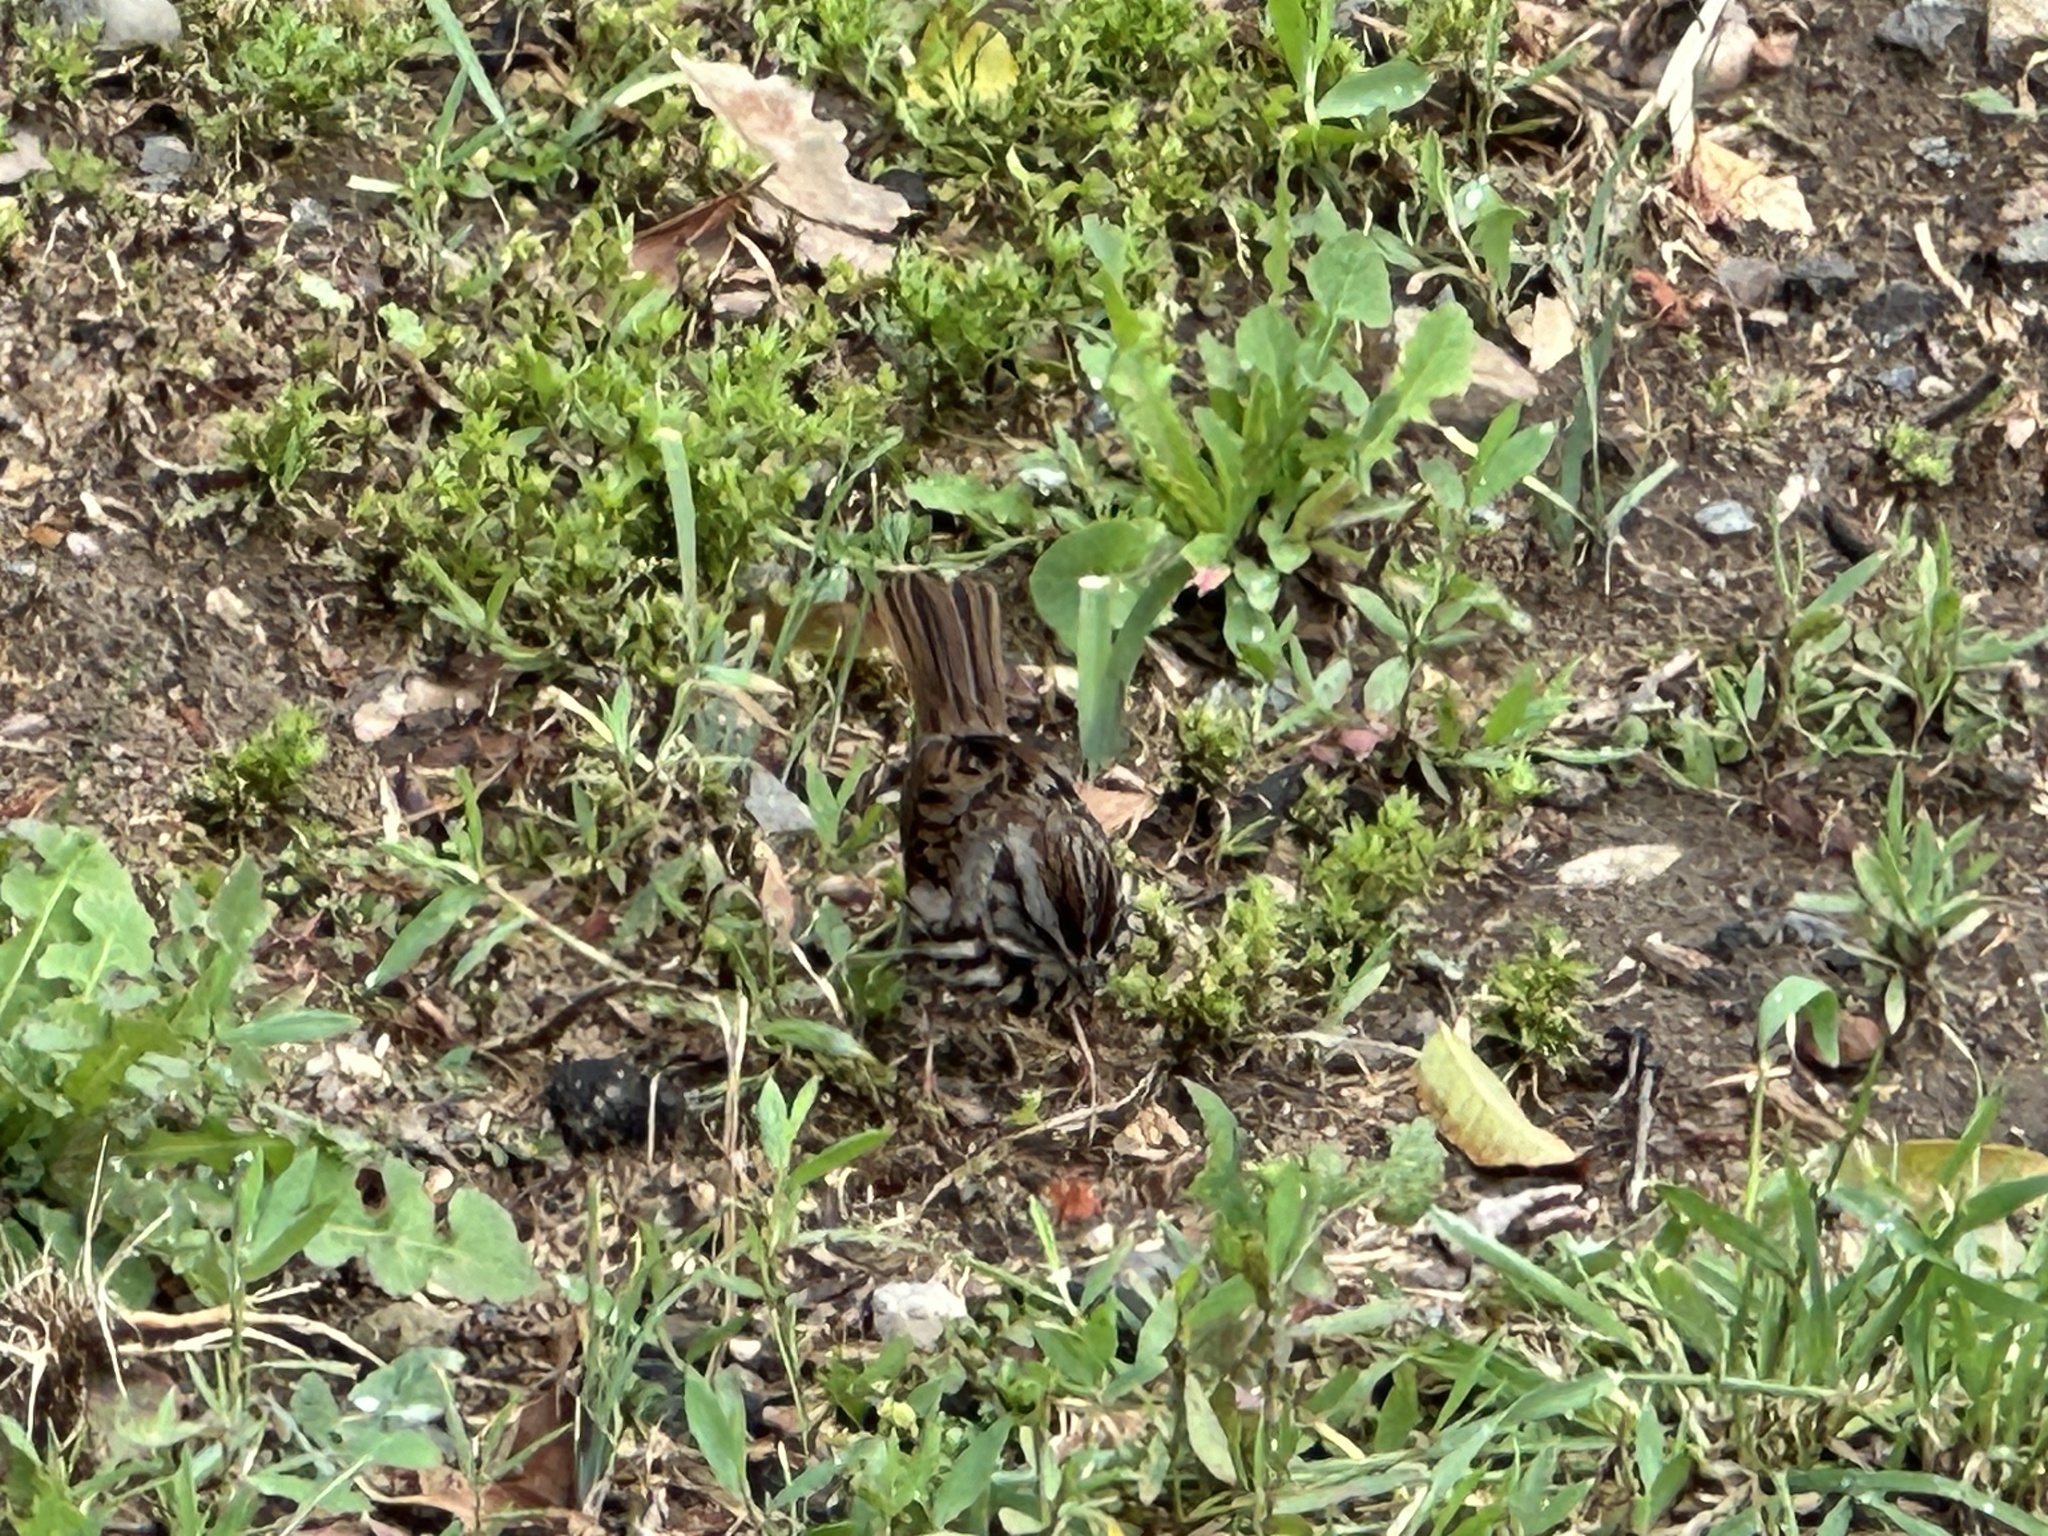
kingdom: Animalia
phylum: Chordata
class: Aves
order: Passeriformes
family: Passerellidae
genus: Melospiza
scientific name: Melospiza melodia
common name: Song sparrow
